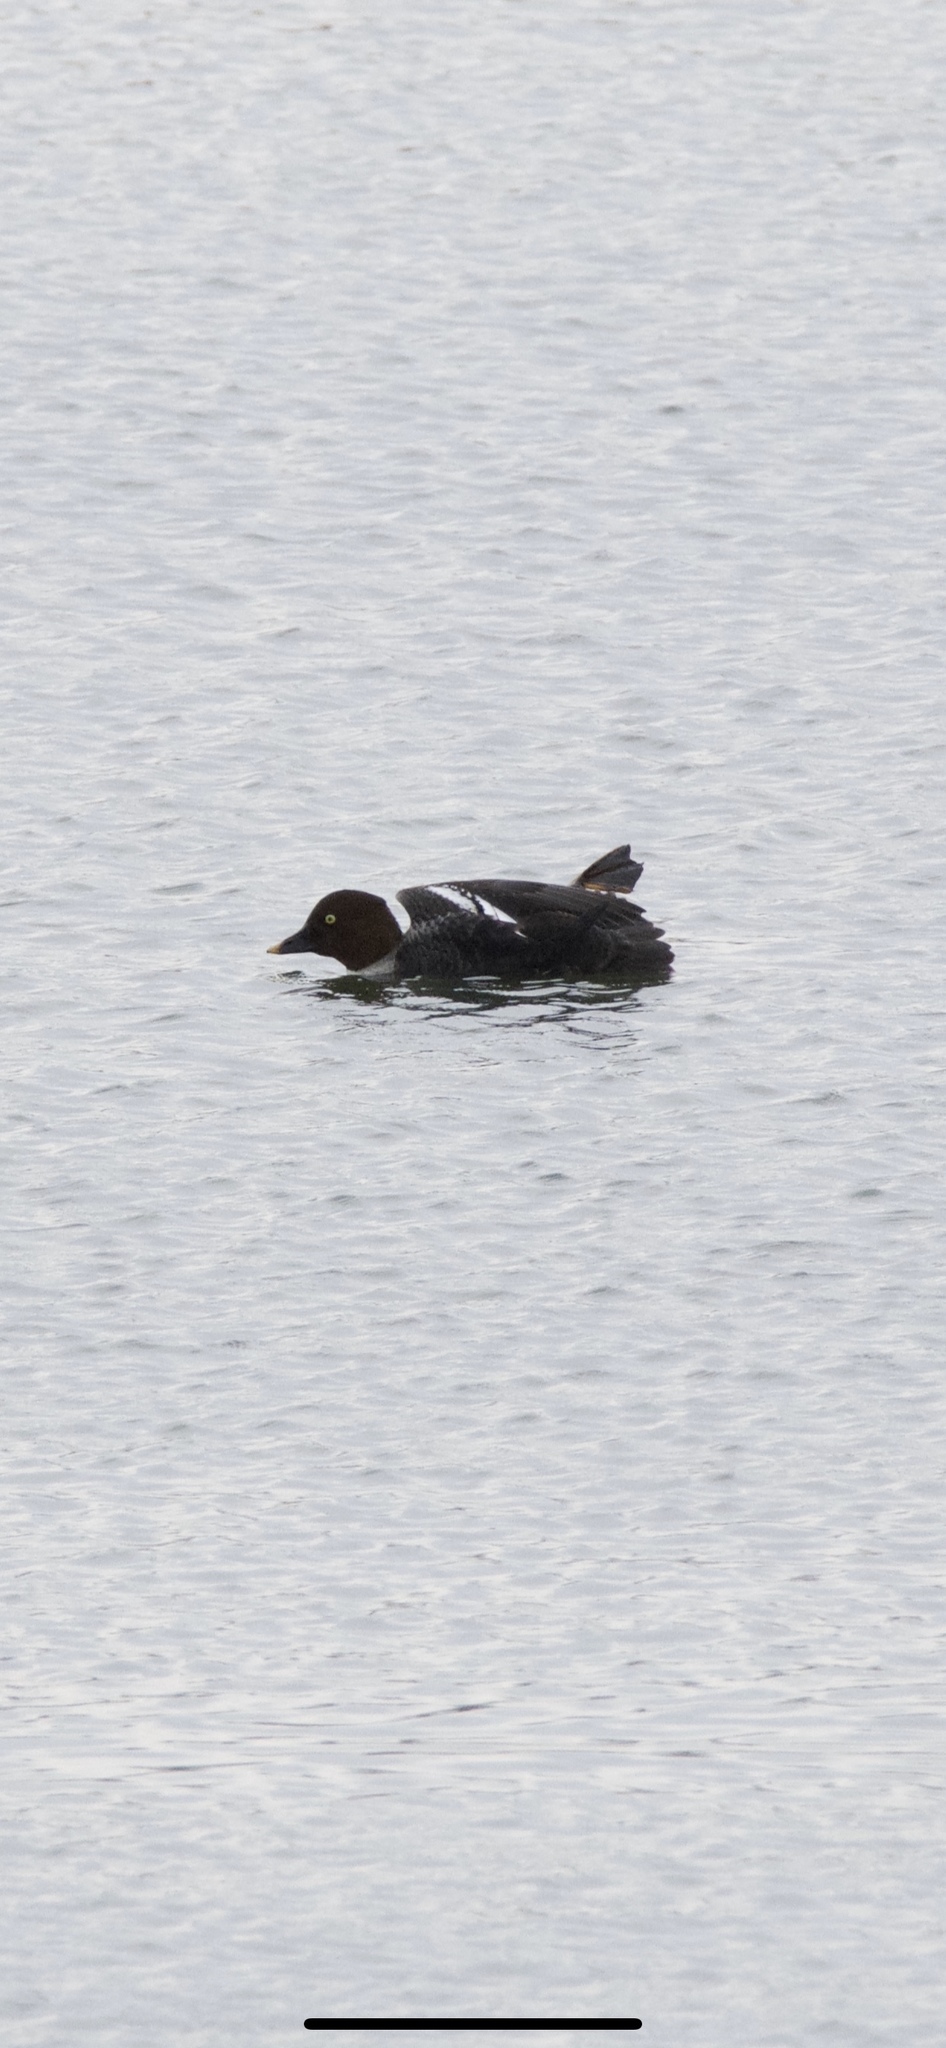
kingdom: Animalia
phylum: Chordata
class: Aves
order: Anseriformes
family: Anatidae
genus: Bucephala
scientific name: Bucephala clangula
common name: Common goldeneye
